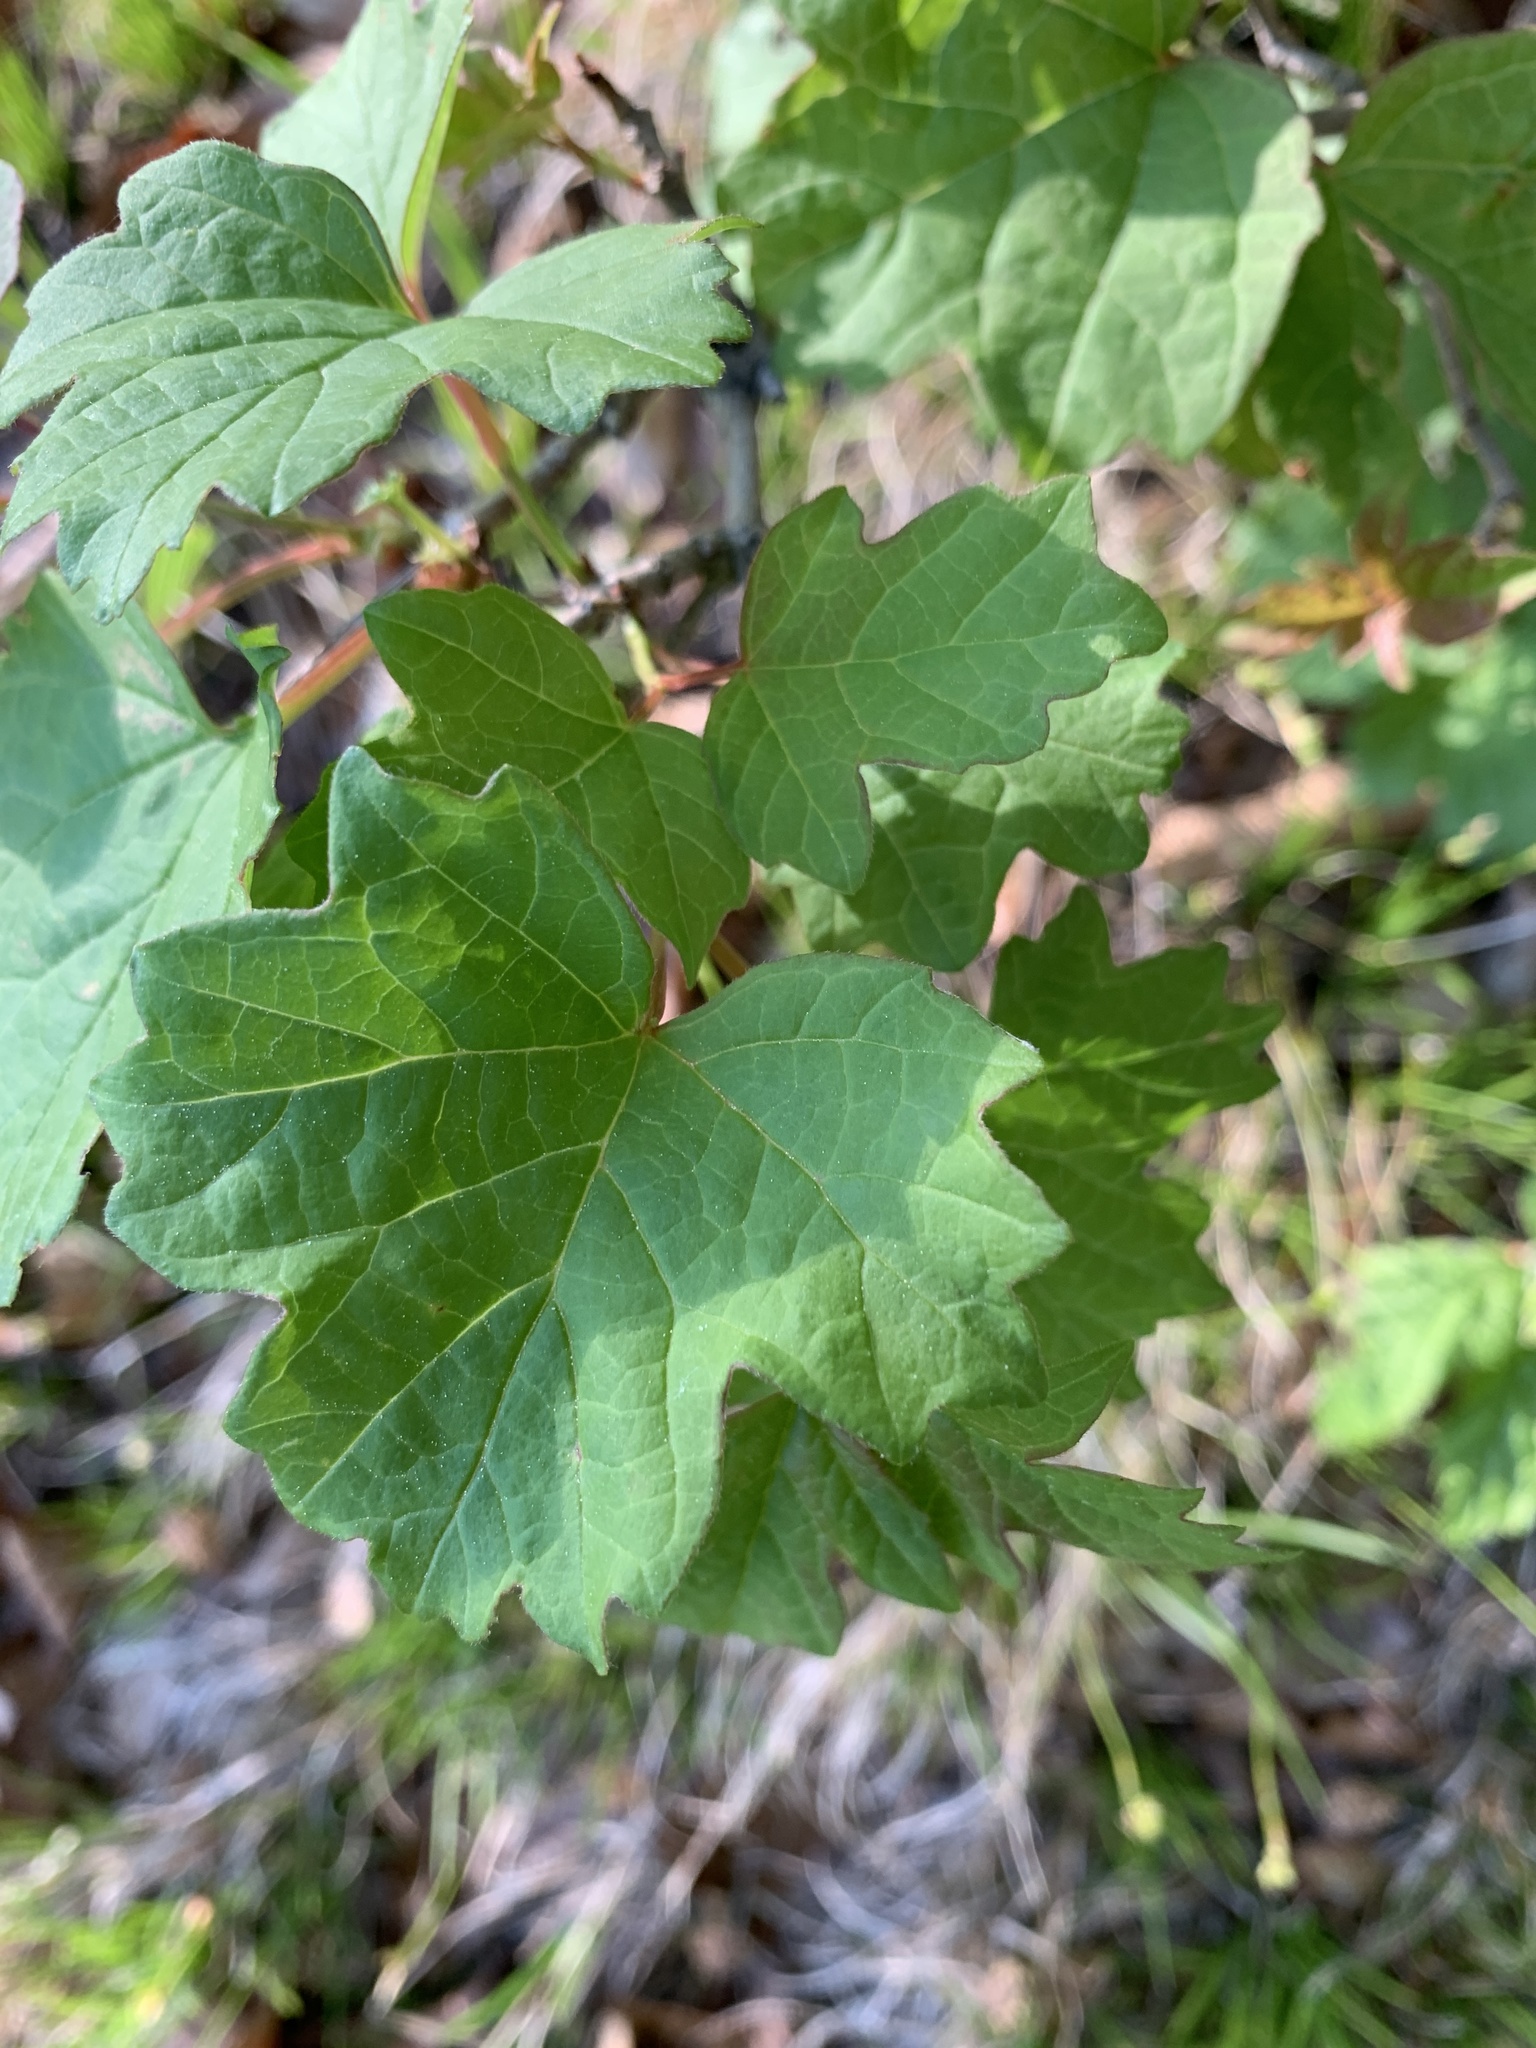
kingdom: Plantae
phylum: Tracheophyta
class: Magnoliopsida
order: Dipsacales
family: Viburnaceae
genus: Viburnum
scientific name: Viburnum opulus
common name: Guelder-rose
